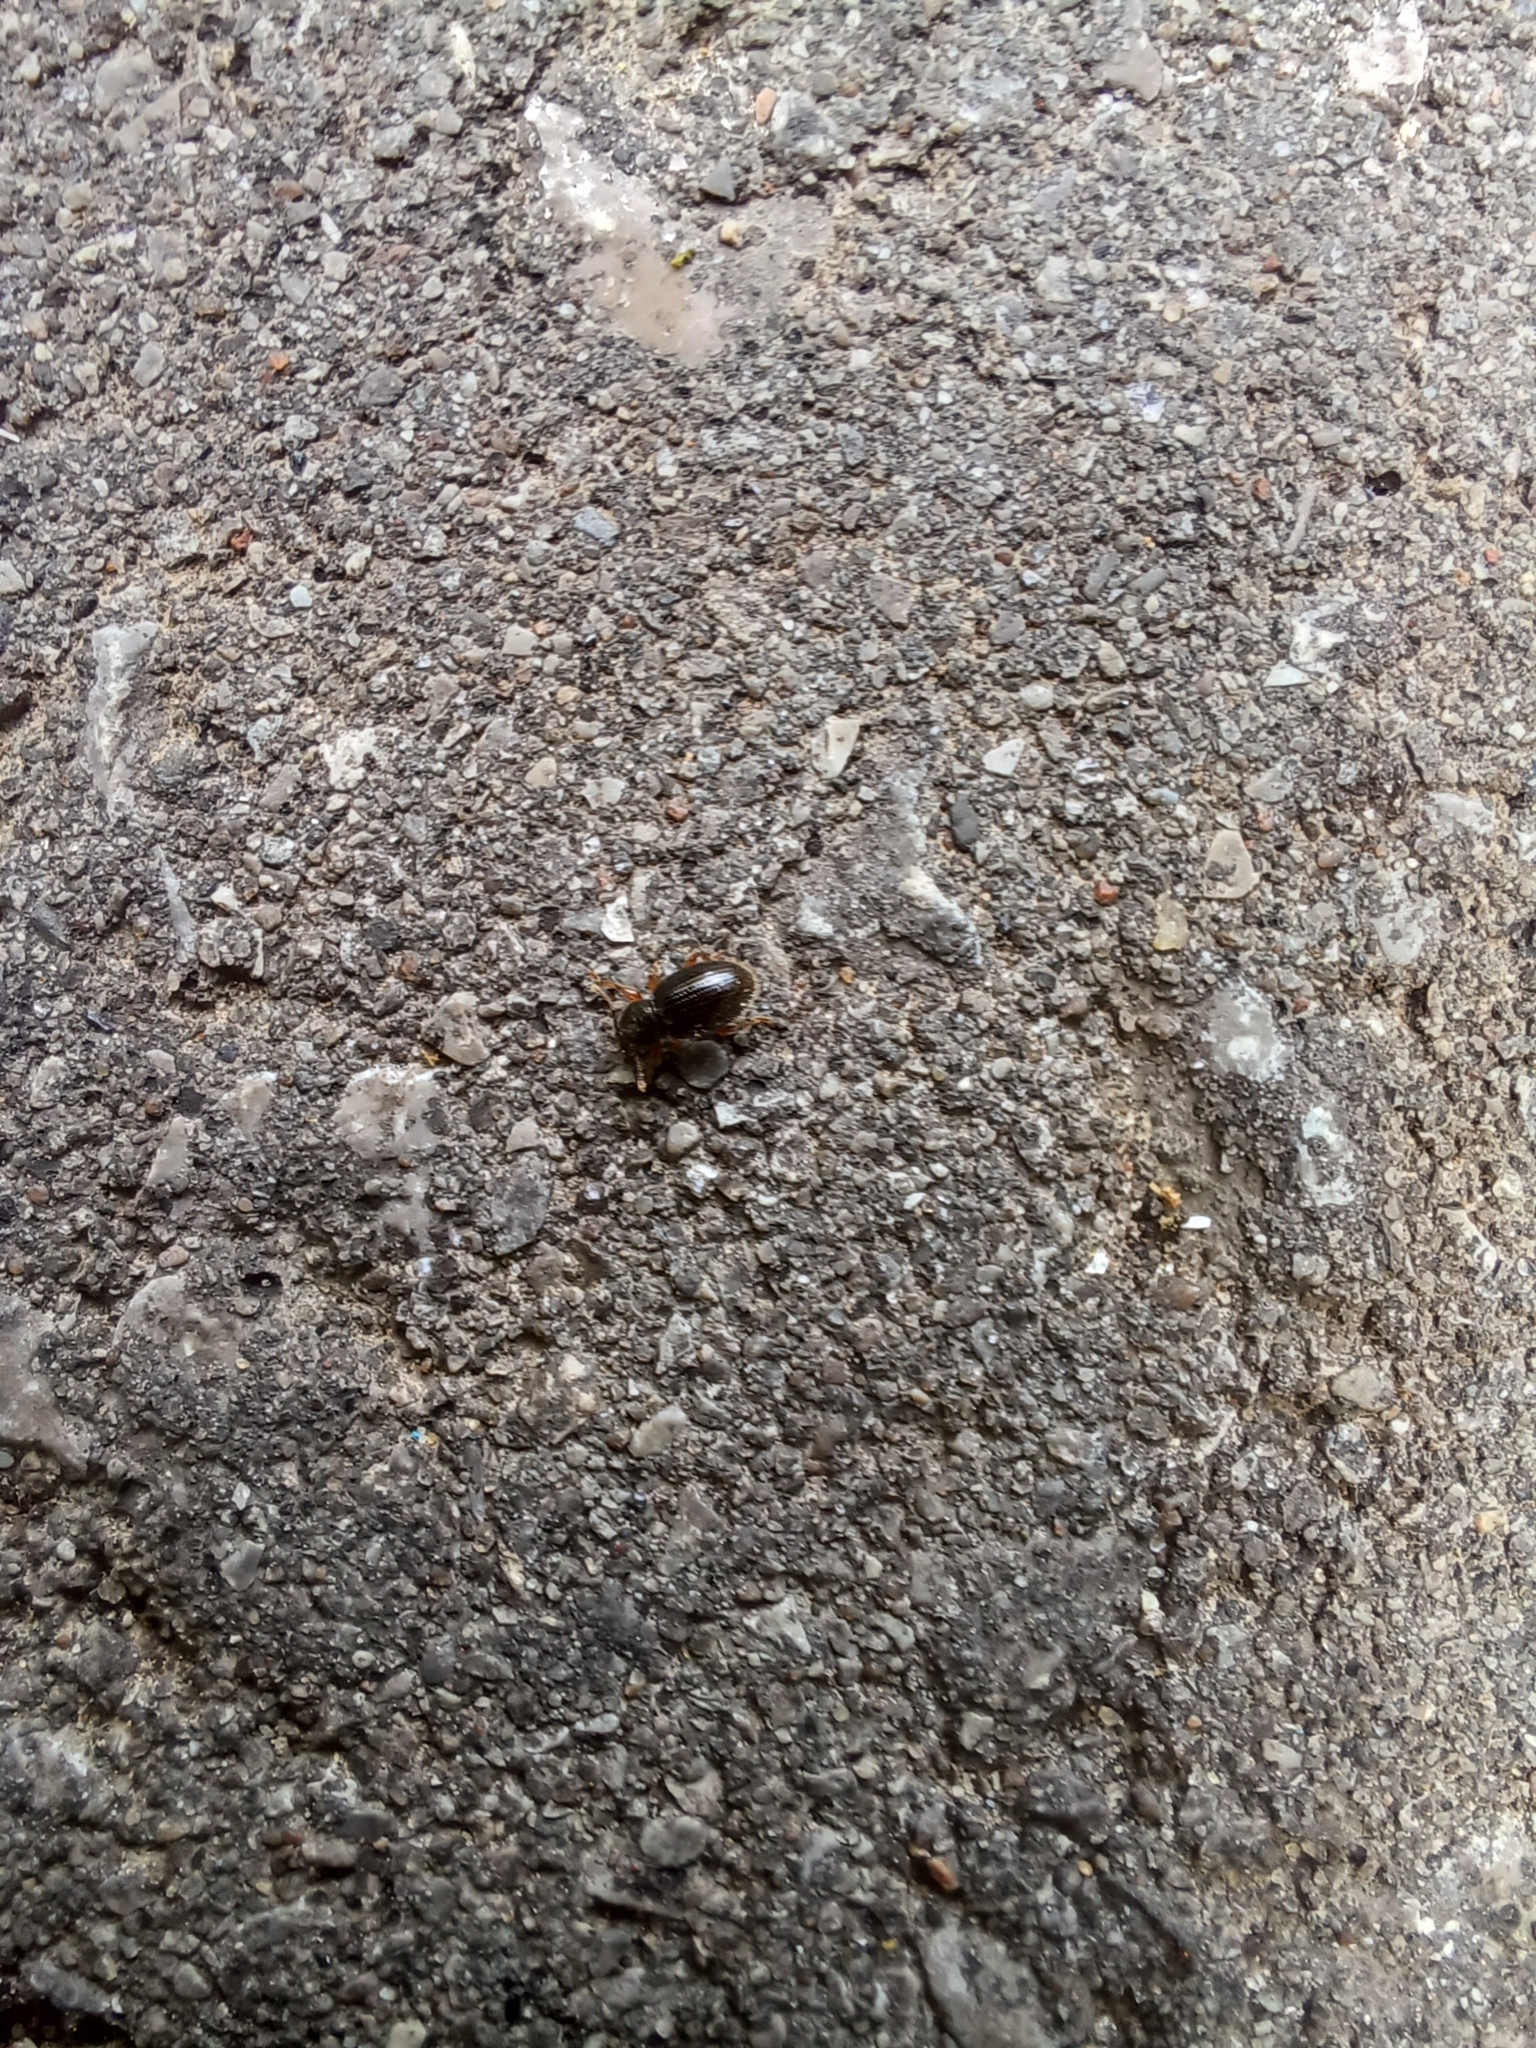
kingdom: Animalia
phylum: Arthropoda
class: Insecta
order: Coleoptera
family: Curculionidae
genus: Exomias
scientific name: Exomias pellucidus
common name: Hairy spider weevil
